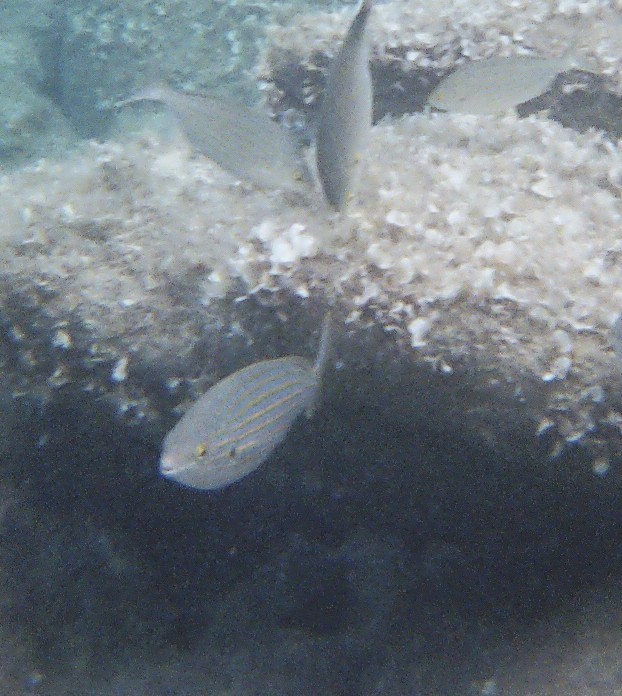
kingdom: Animalia
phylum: Chordata
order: Perciformes
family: Sparidae
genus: Sarpa
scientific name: Sarpa salpa
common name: Salema
